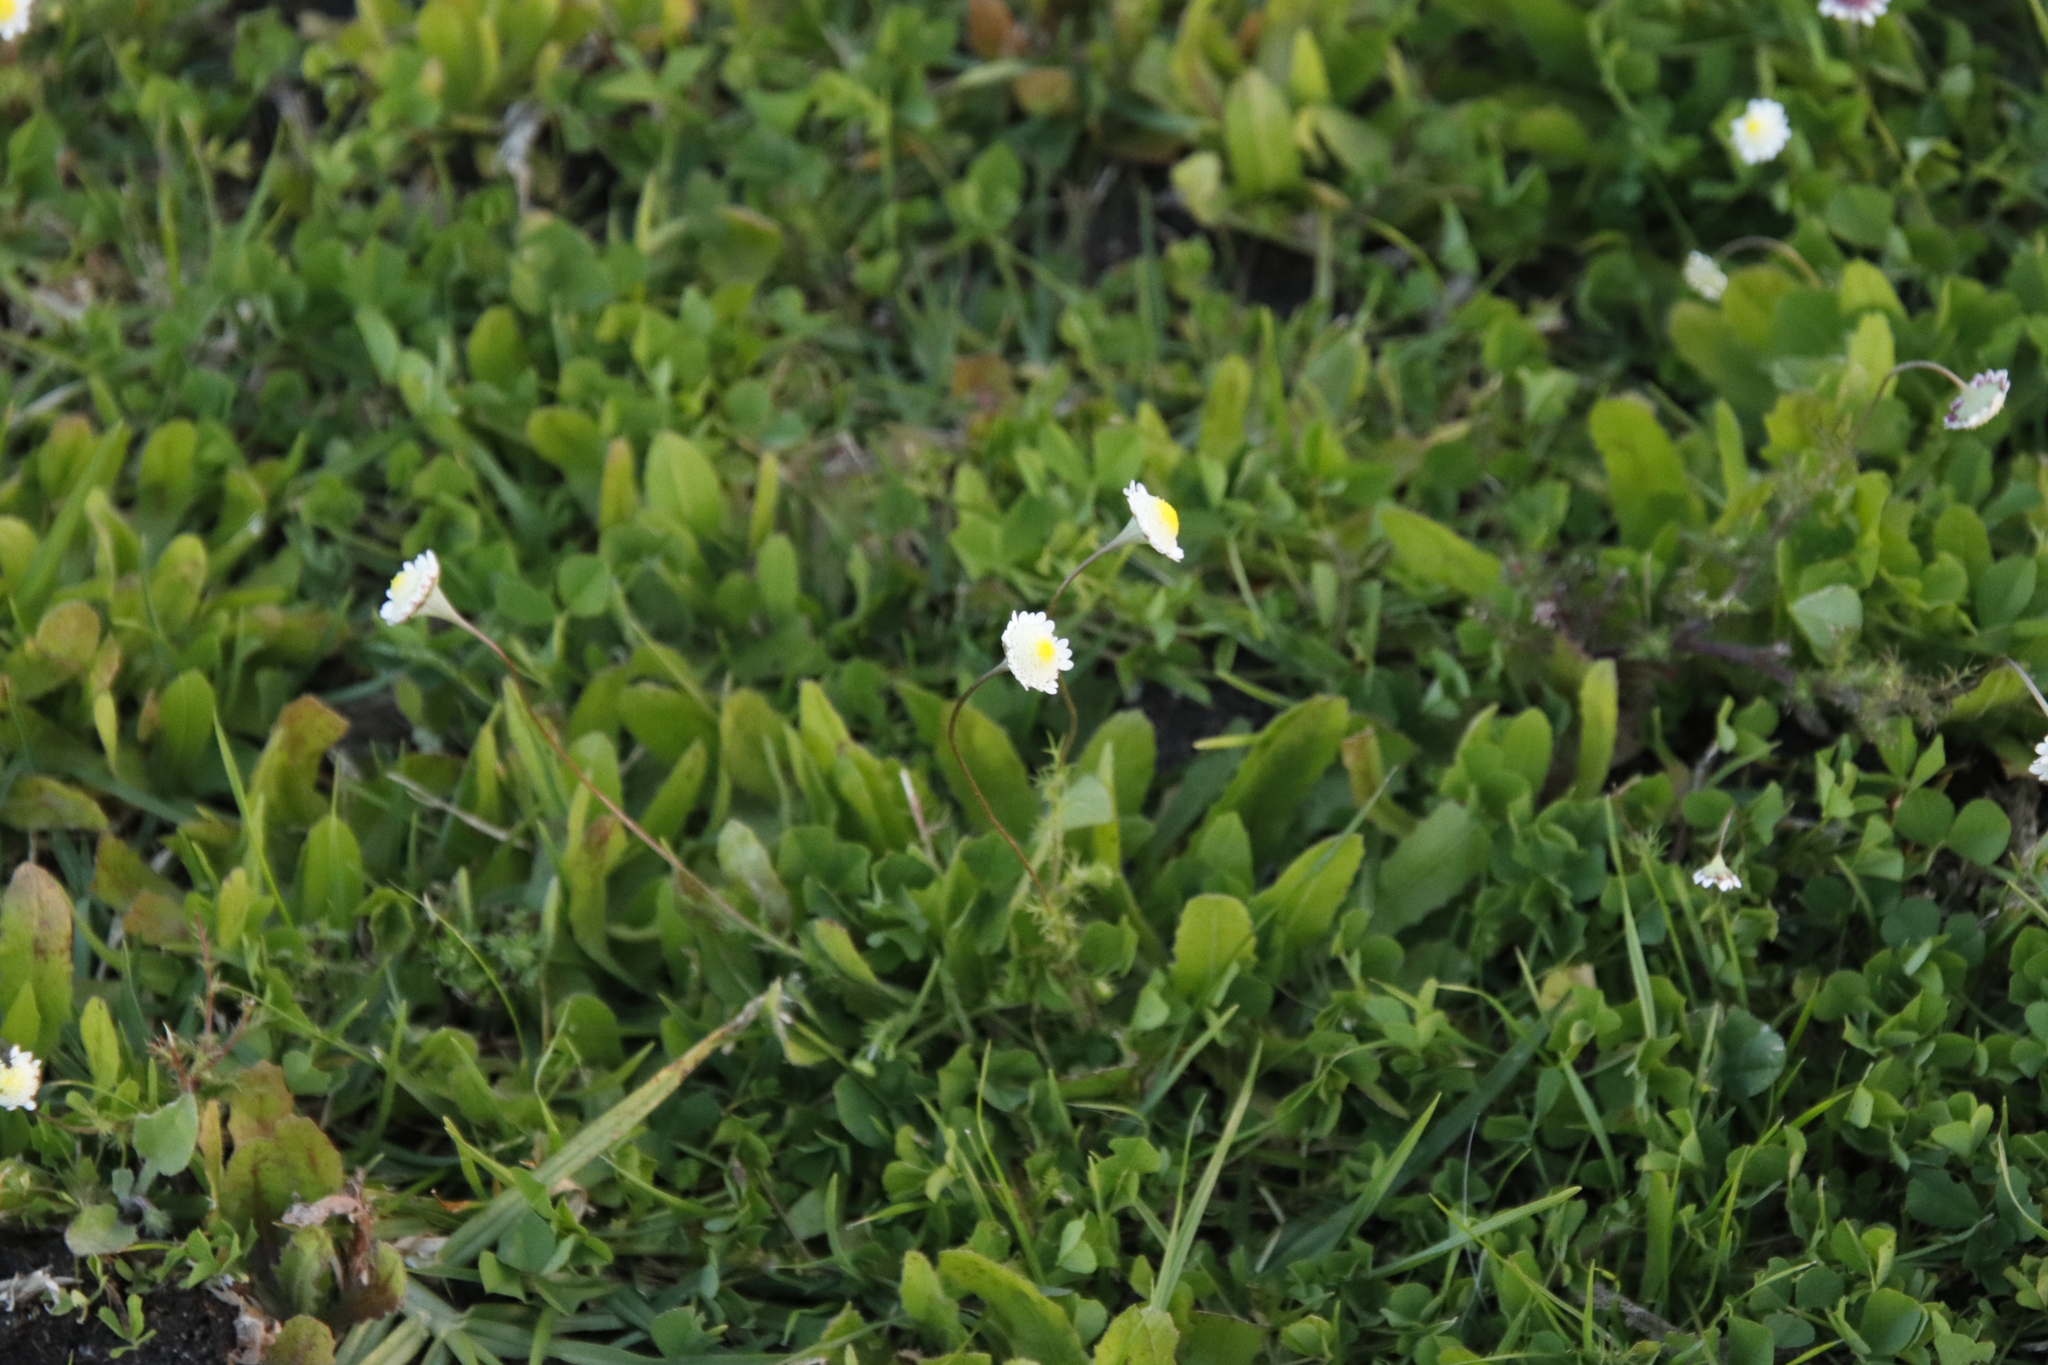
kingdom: Plantae
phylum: Tracheophyta
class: Magnoliopsida
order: Asterales
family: Asteraceae
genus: Cotula
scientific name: Cotula turbinata
